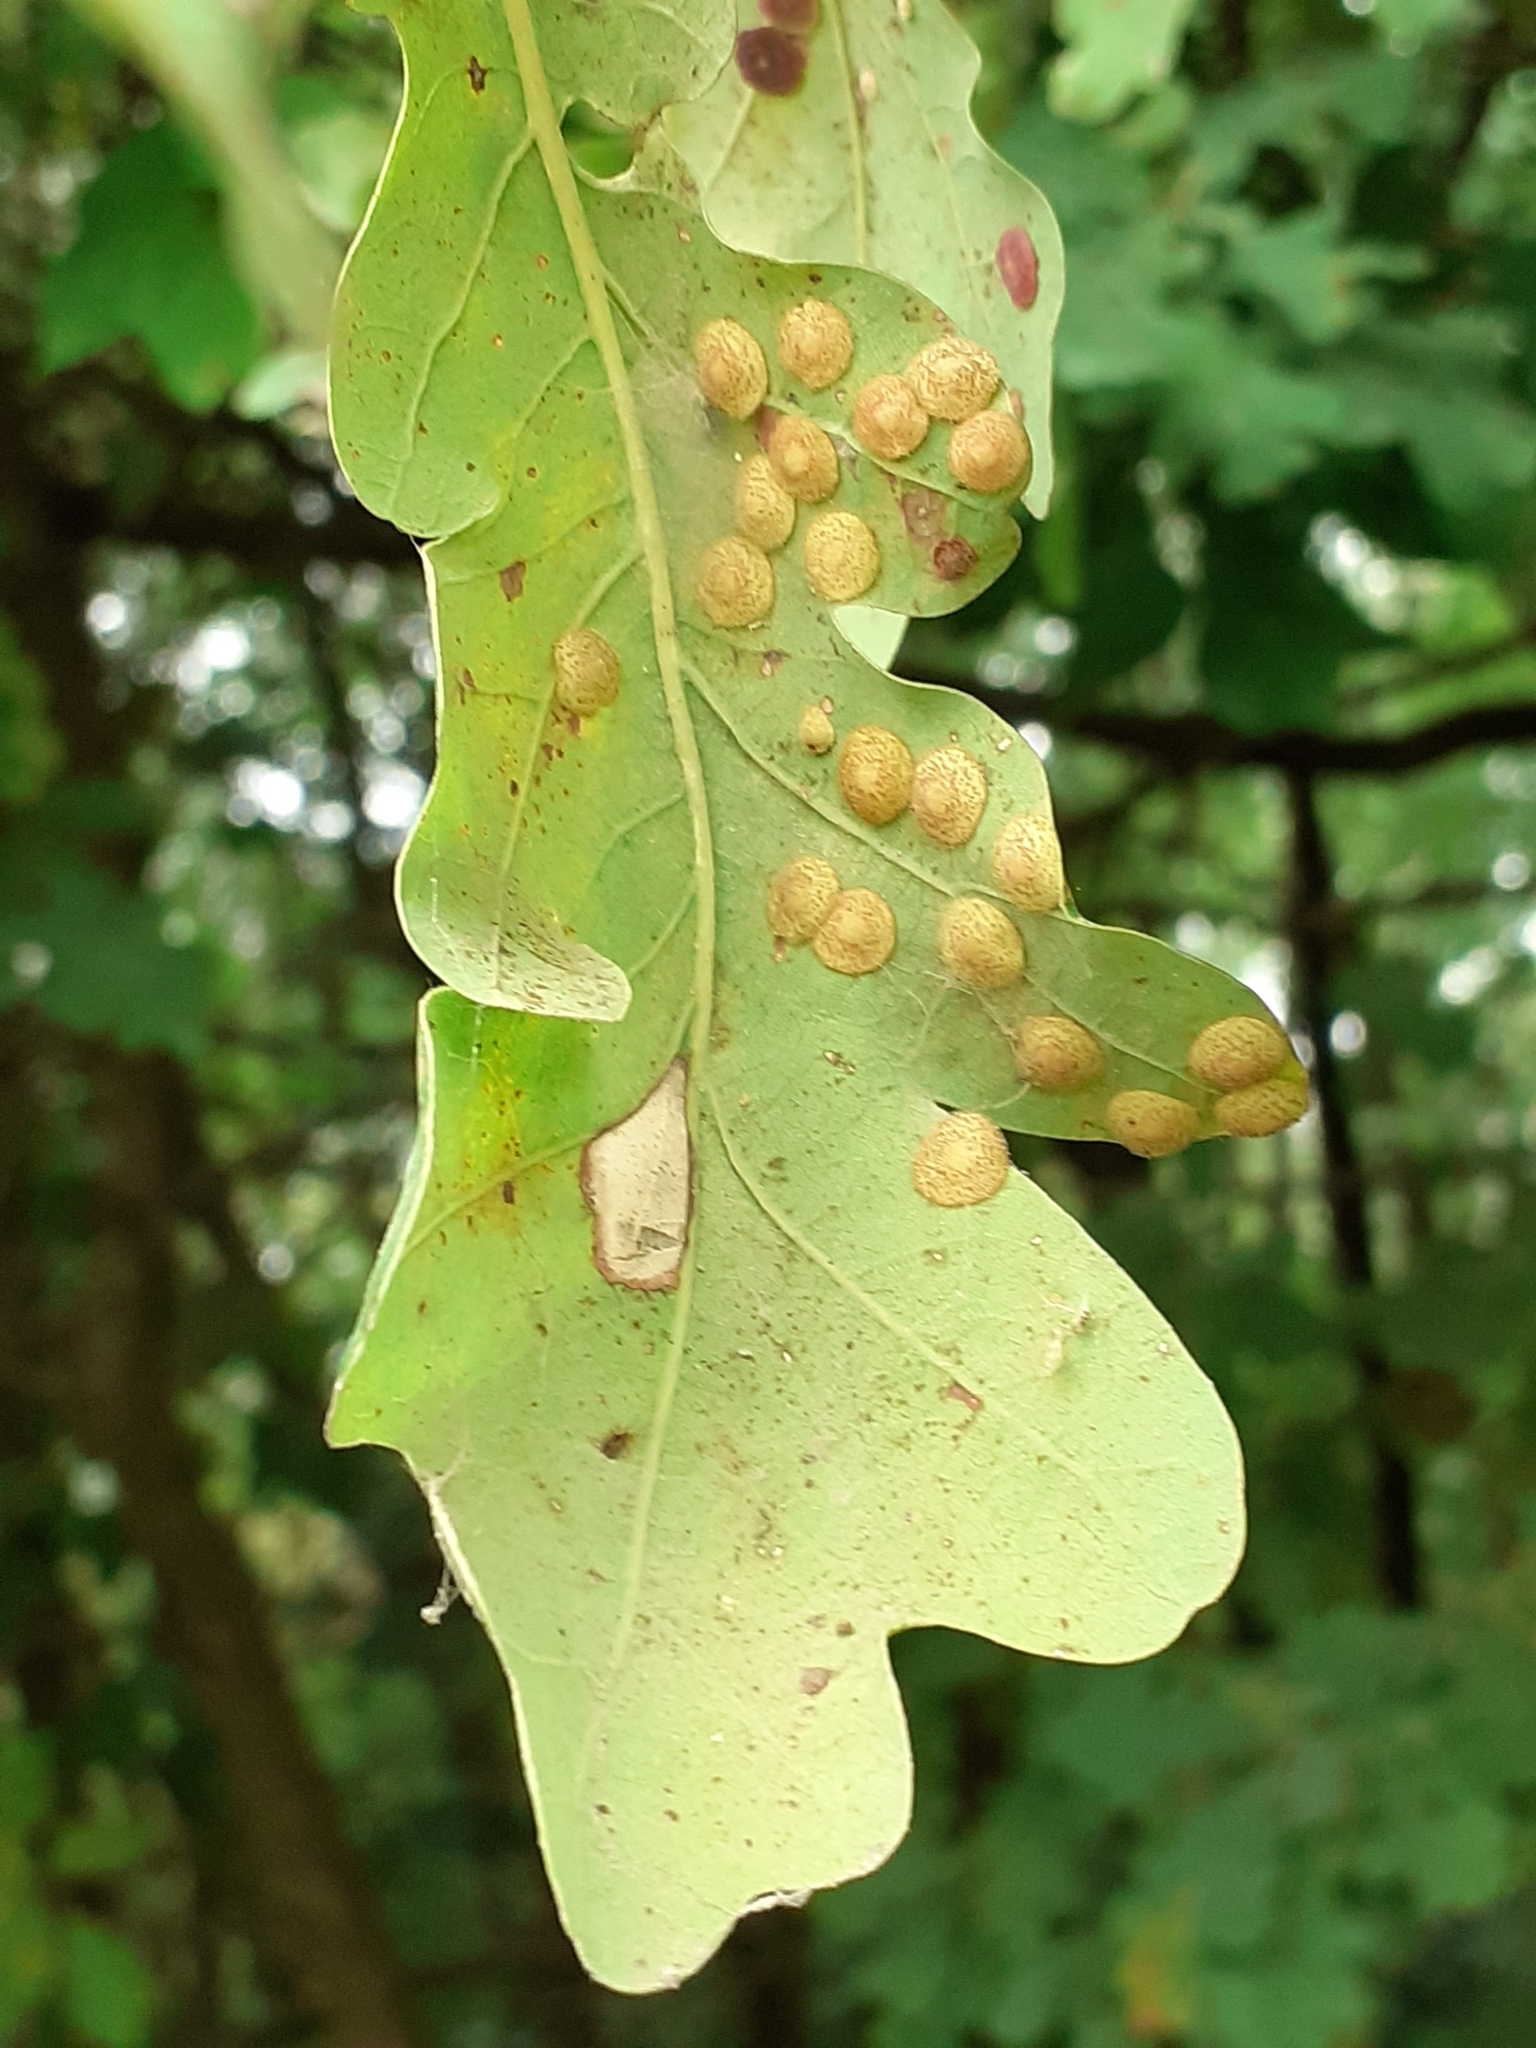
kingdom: Animalia
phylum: Arthropoda
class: Insecta
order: Hymenoptera
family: Cynipidae
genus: Neuroterus
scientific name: Neuroterus quercusbaccarum
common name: Common spangle gall
